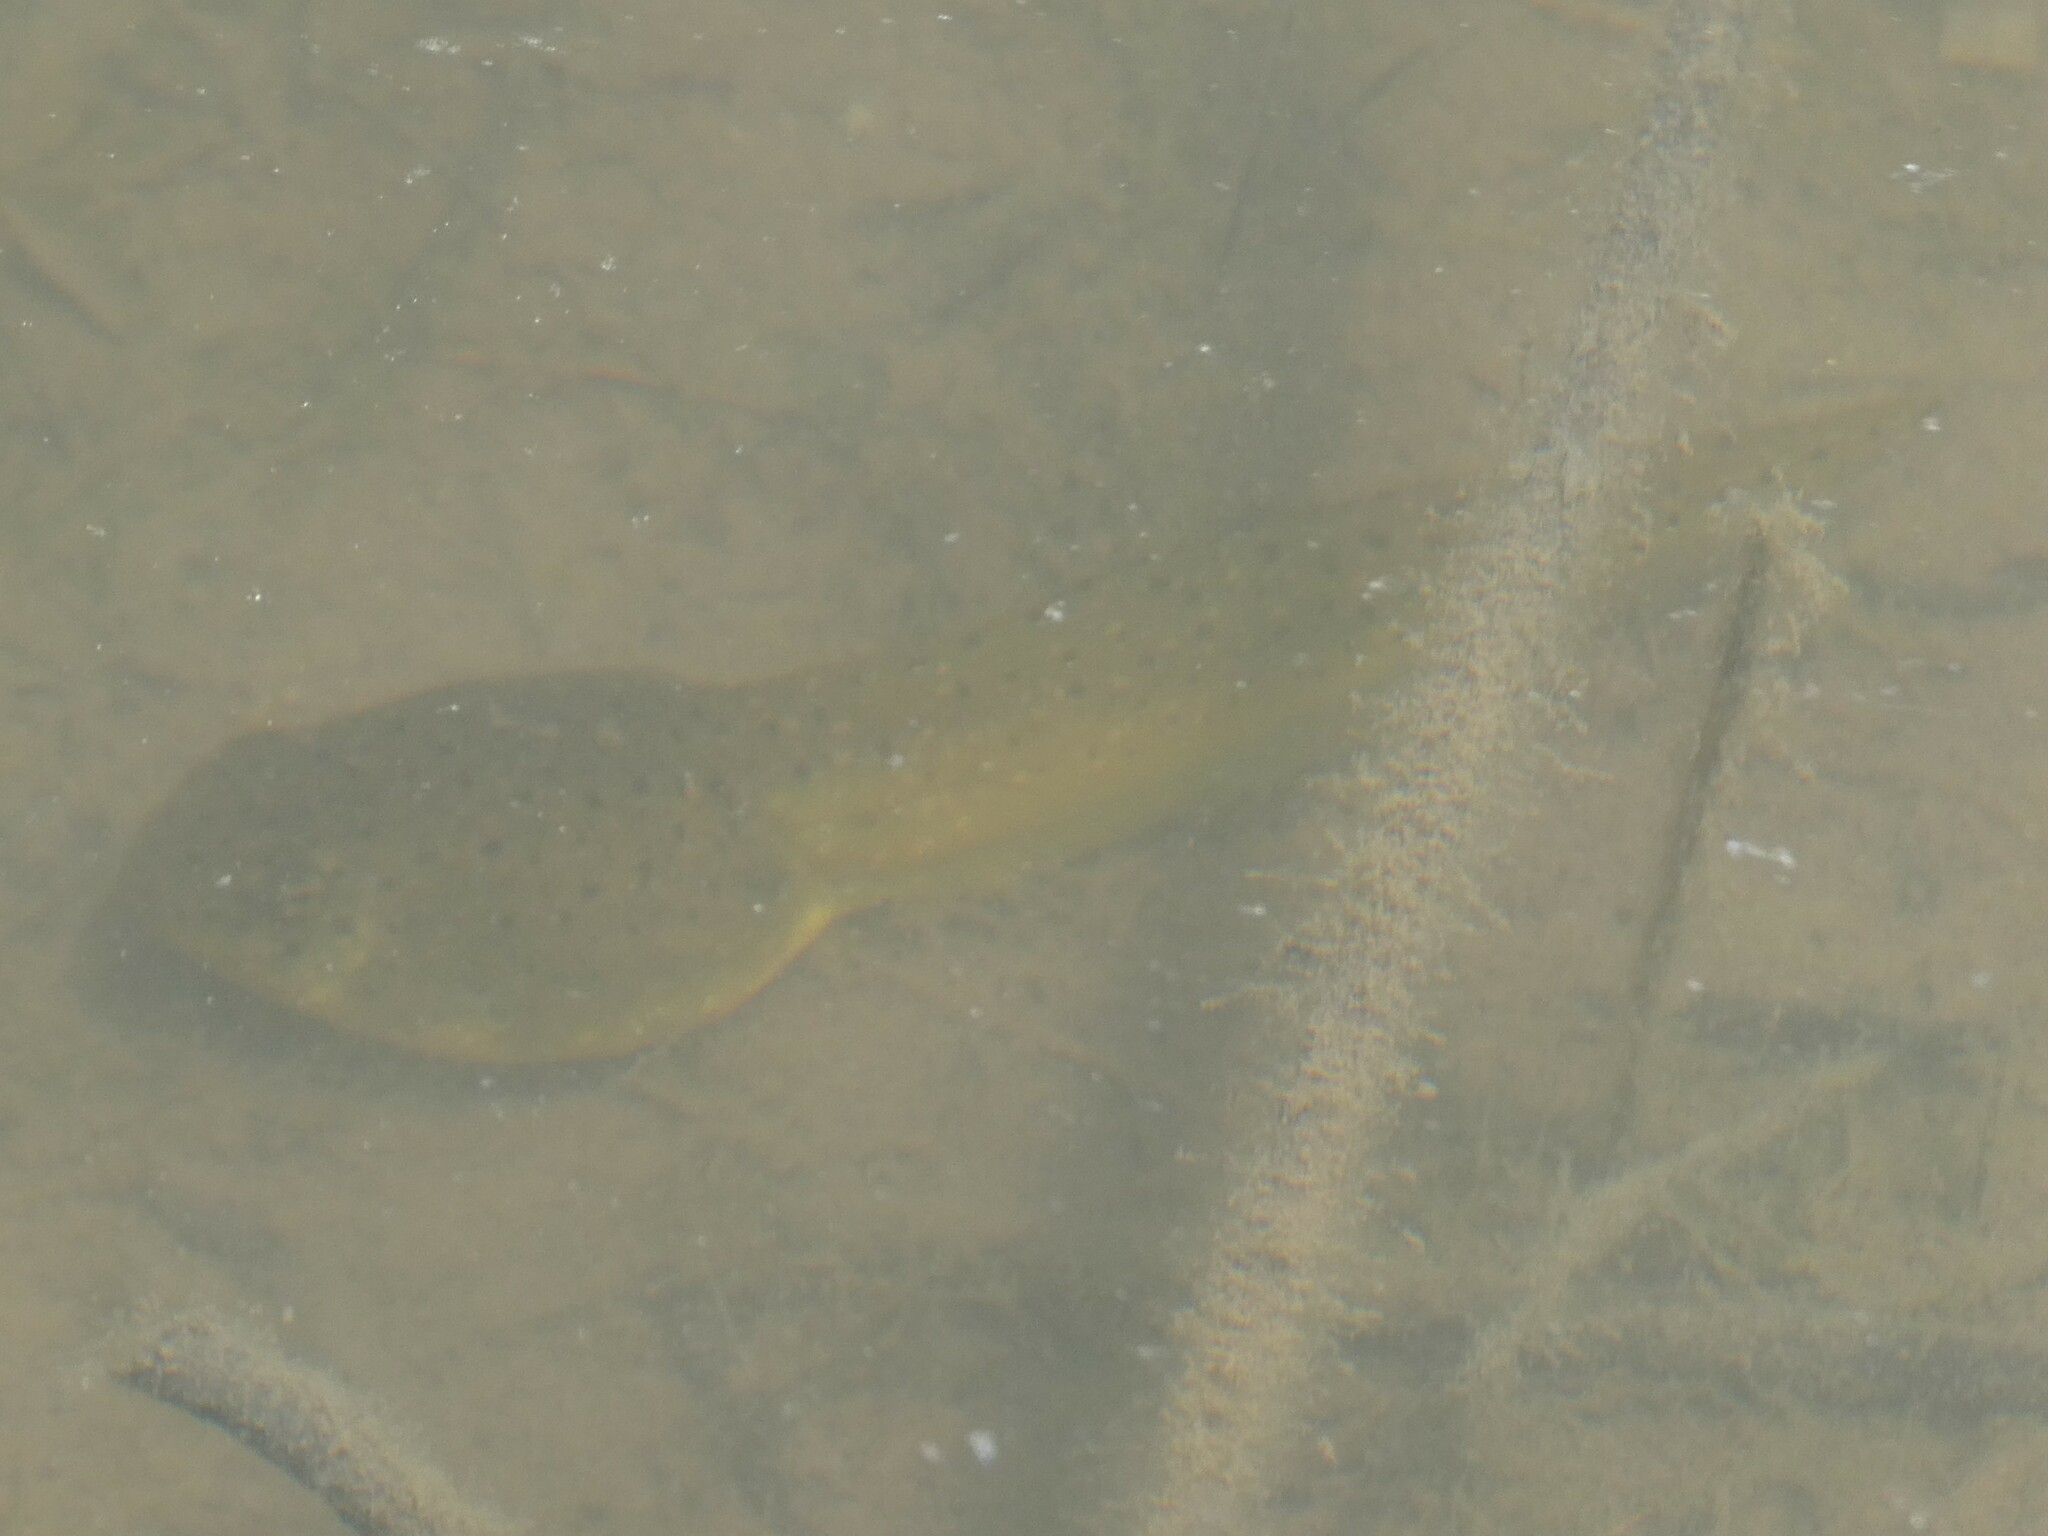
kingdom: Animalia
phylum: Chordata
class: Amphibia
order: Anura
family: Ranidae
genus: Lithobates
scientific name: Lithobates catesbeianus
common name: American bullfrog
